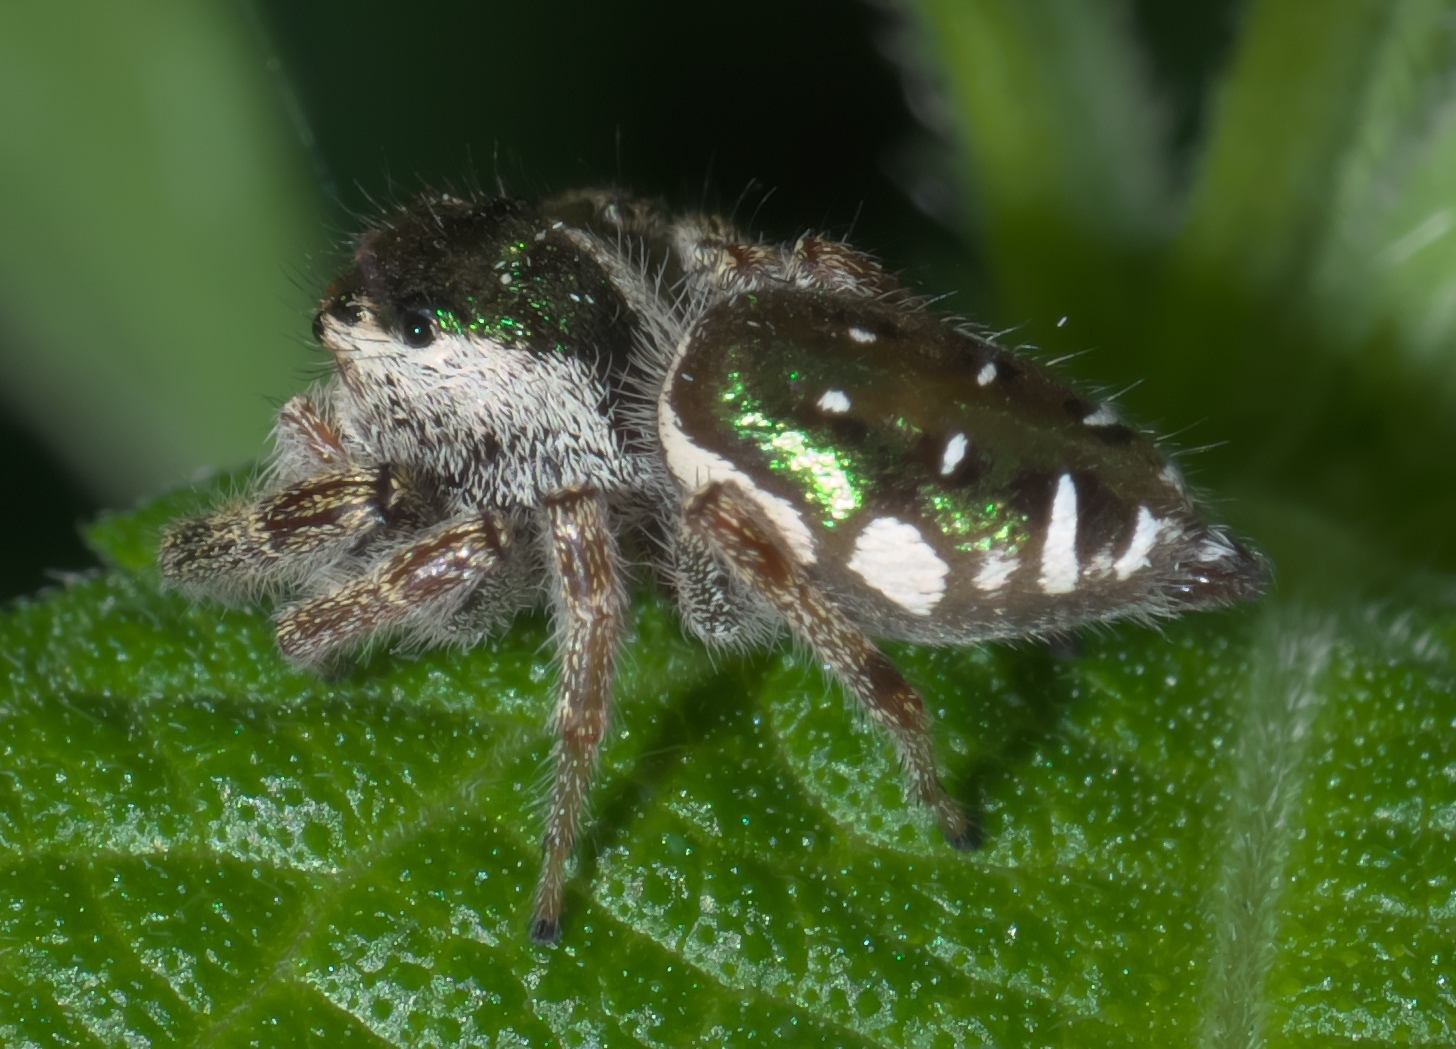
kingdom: Animalia
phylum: Arthropoda
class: Arachnida
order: Araneae
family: Salticidae
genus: Paraphidippus
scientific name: Paraphidippus aurantius
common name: Jumping spiders
